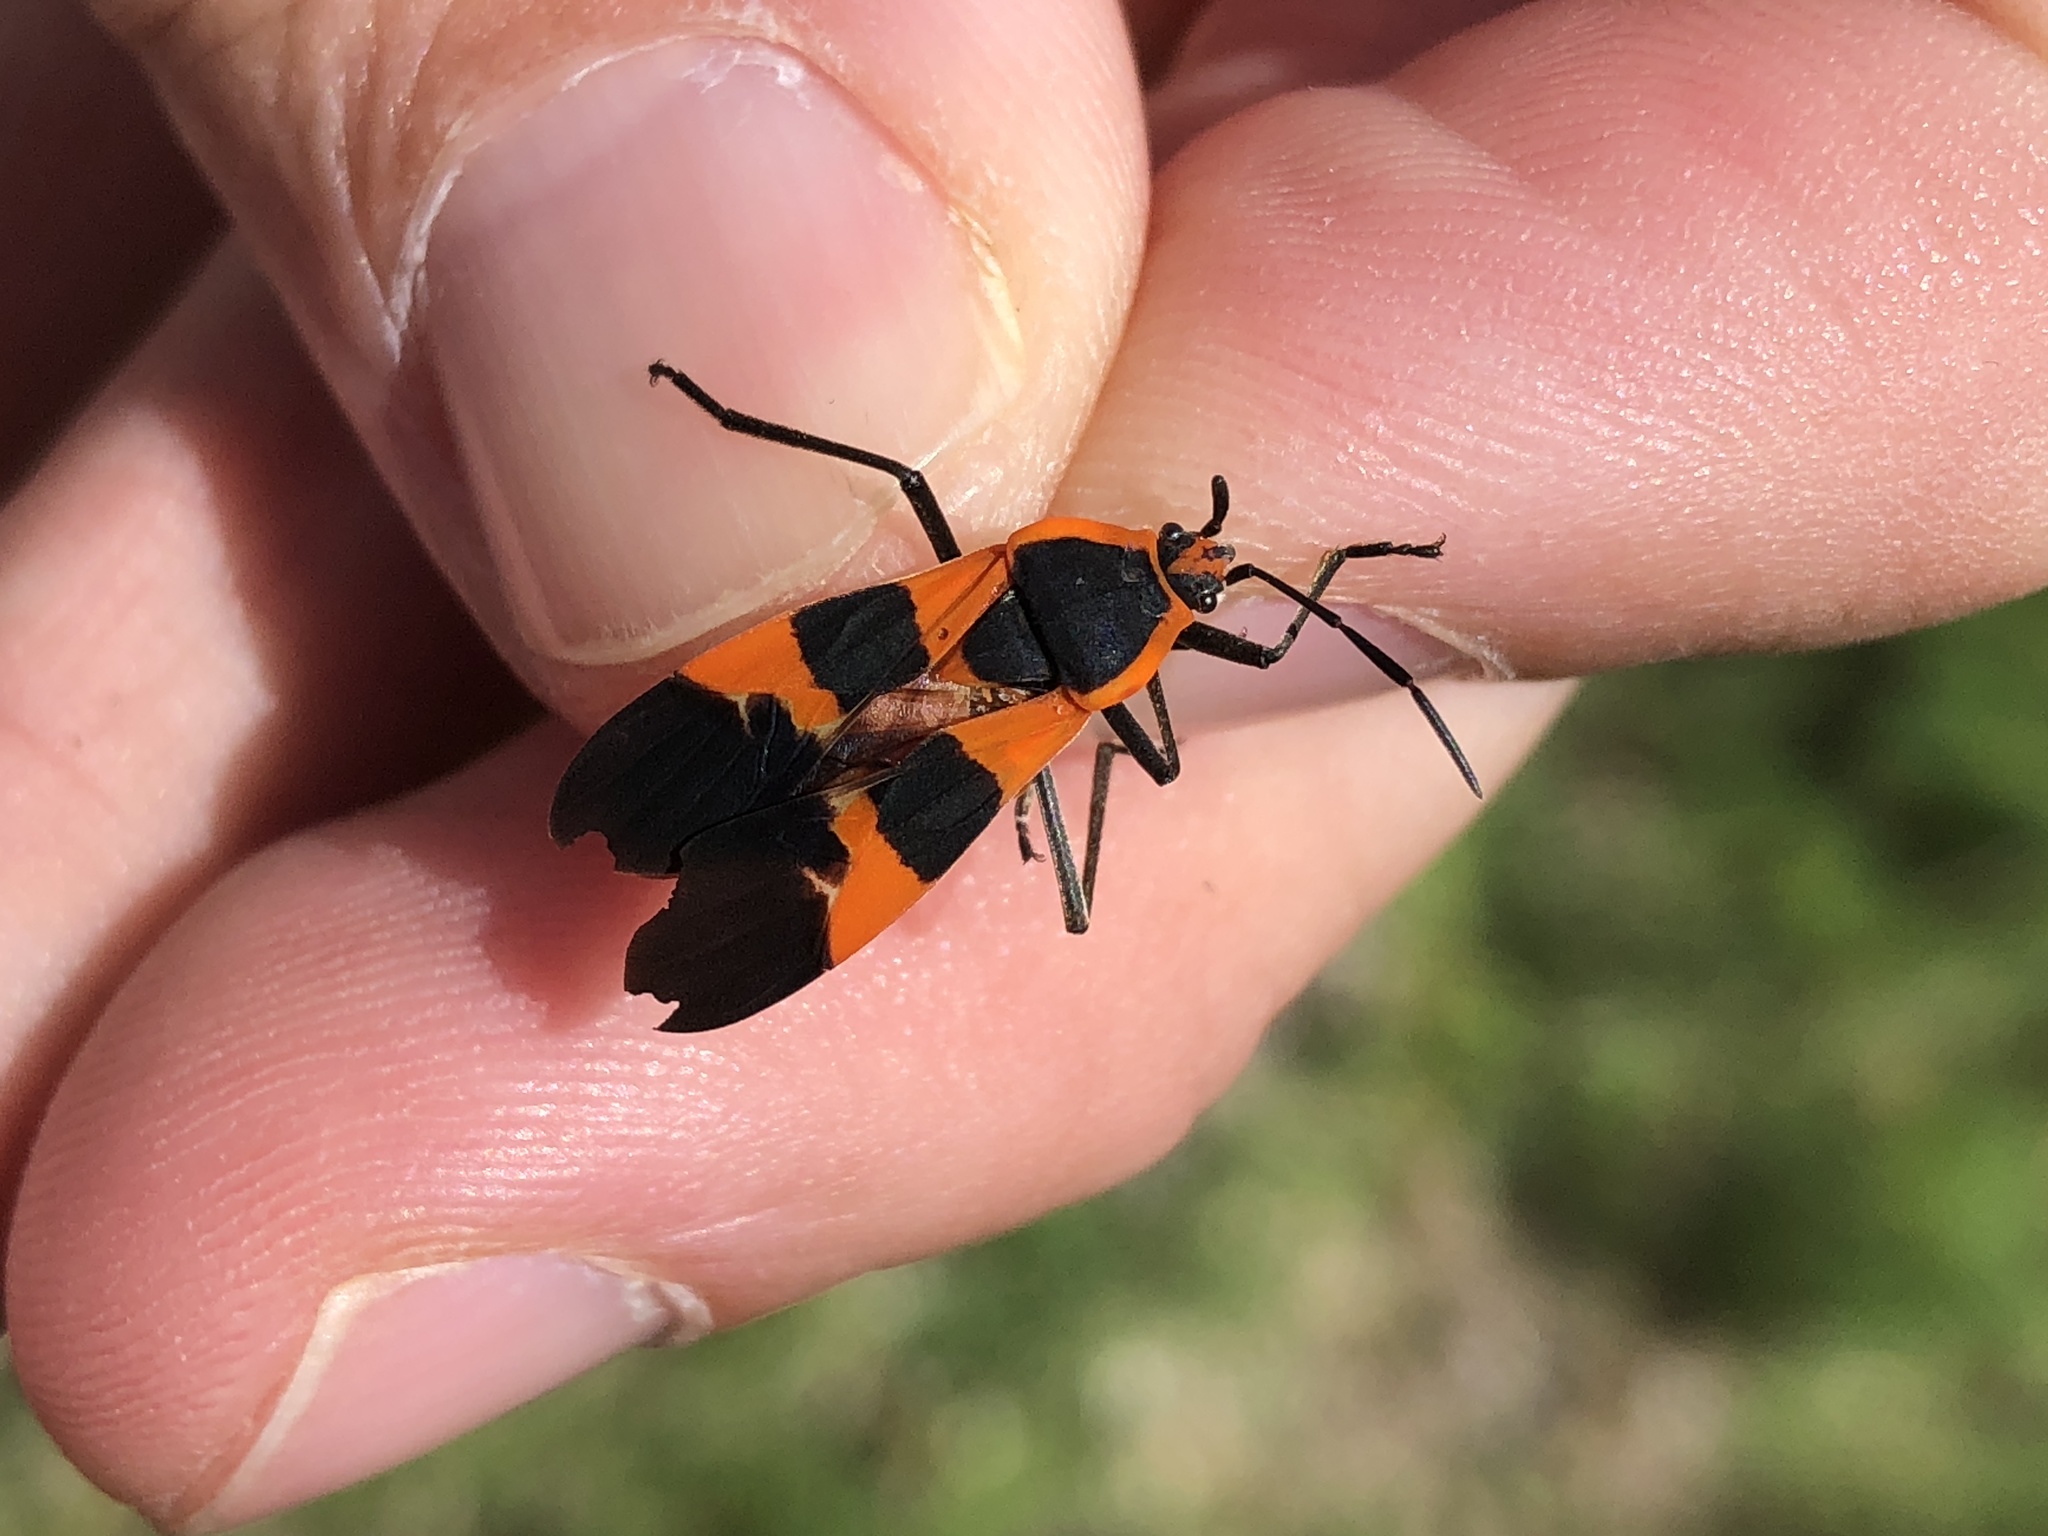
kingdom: Animalia
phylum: Arthropoda
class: Insecta
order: Hemiptera
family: Lygaeidae
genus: Oncopeltus
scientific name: Oncopeltus fasciatus
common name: Large milkweed bug
